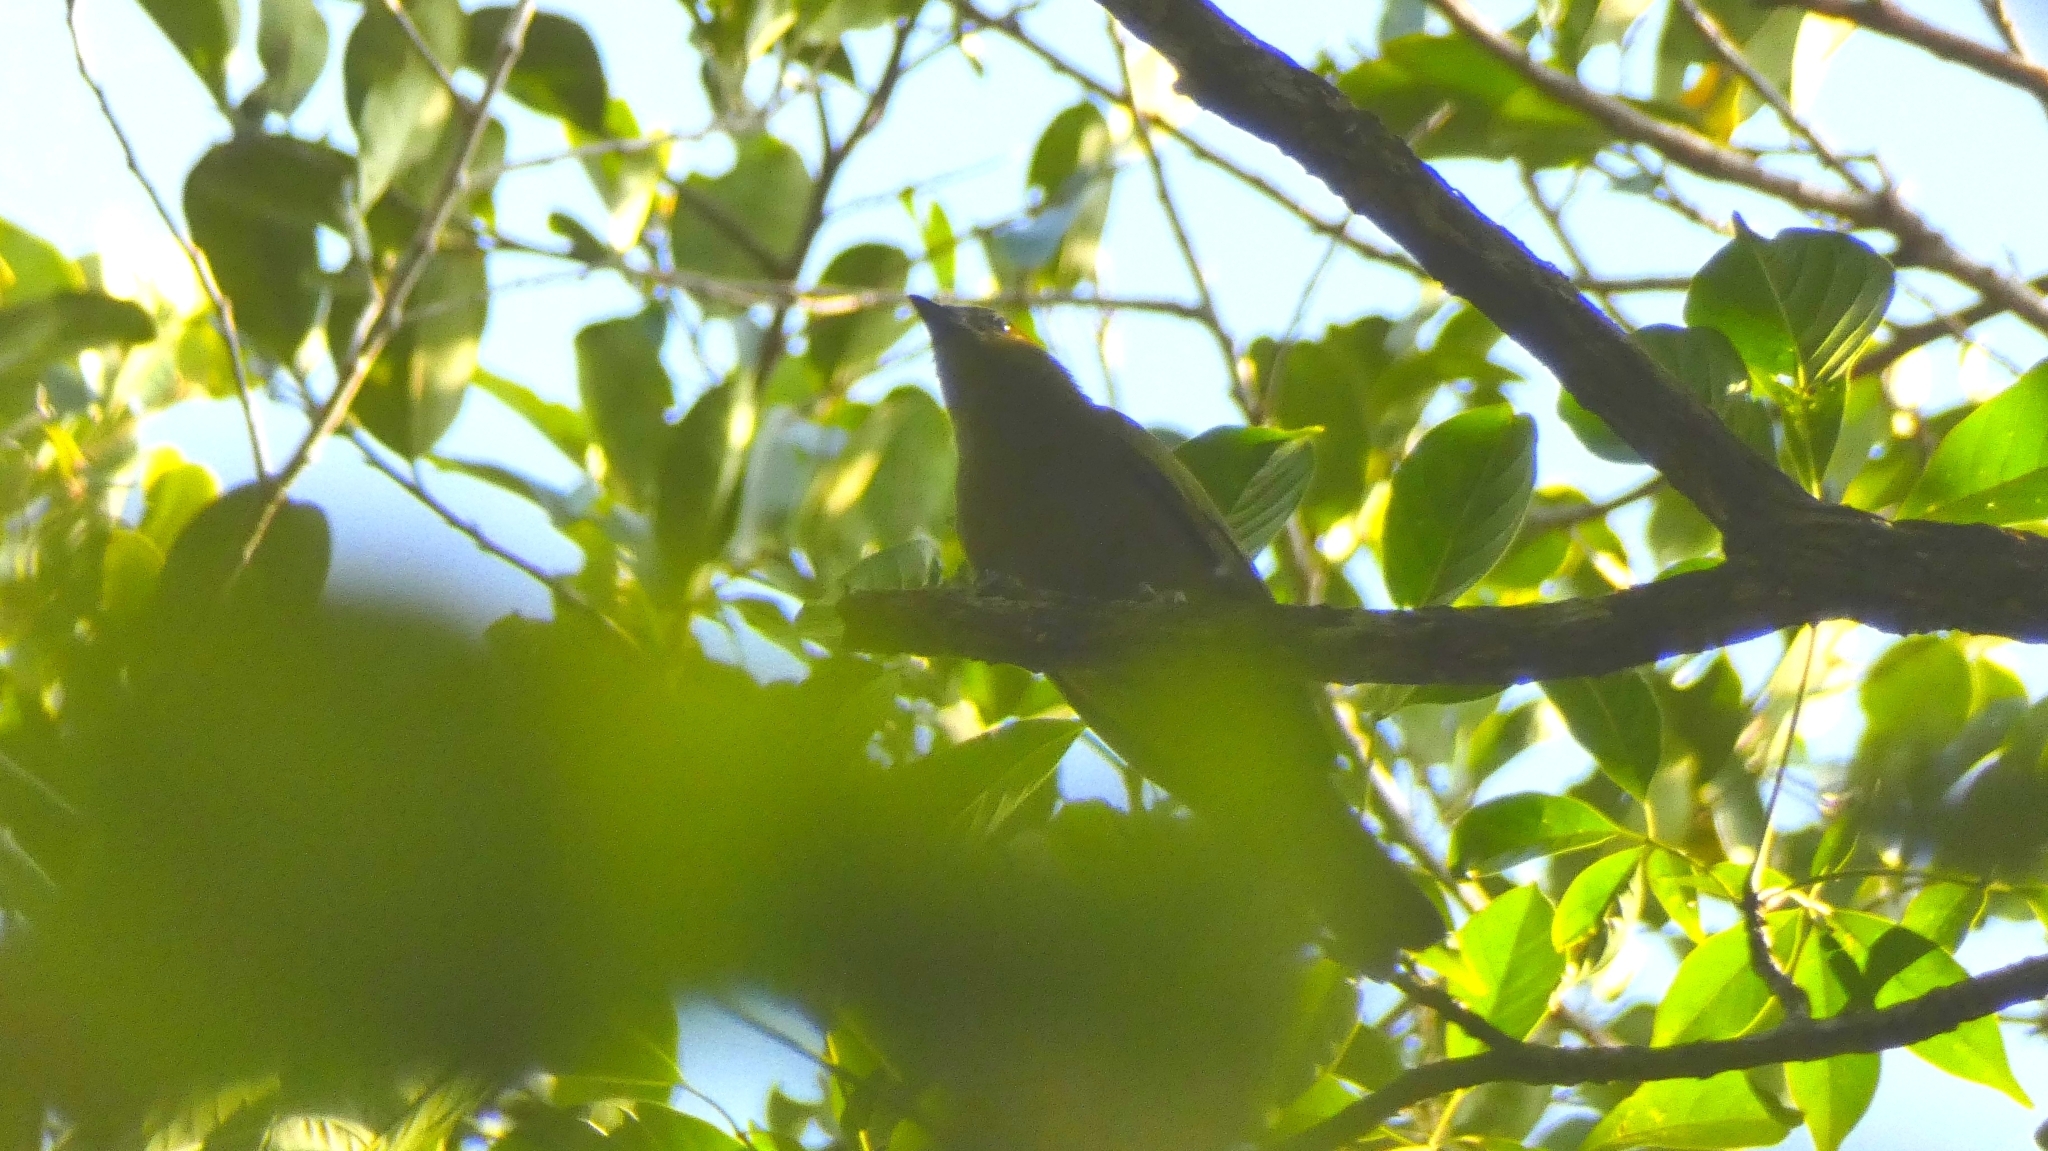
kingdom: Animalia
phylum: Chordata
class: Aves
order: Passeriformes
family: Thraupidae
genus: Thraupis
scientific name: Thraupis palmarum
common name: Palm tanager
